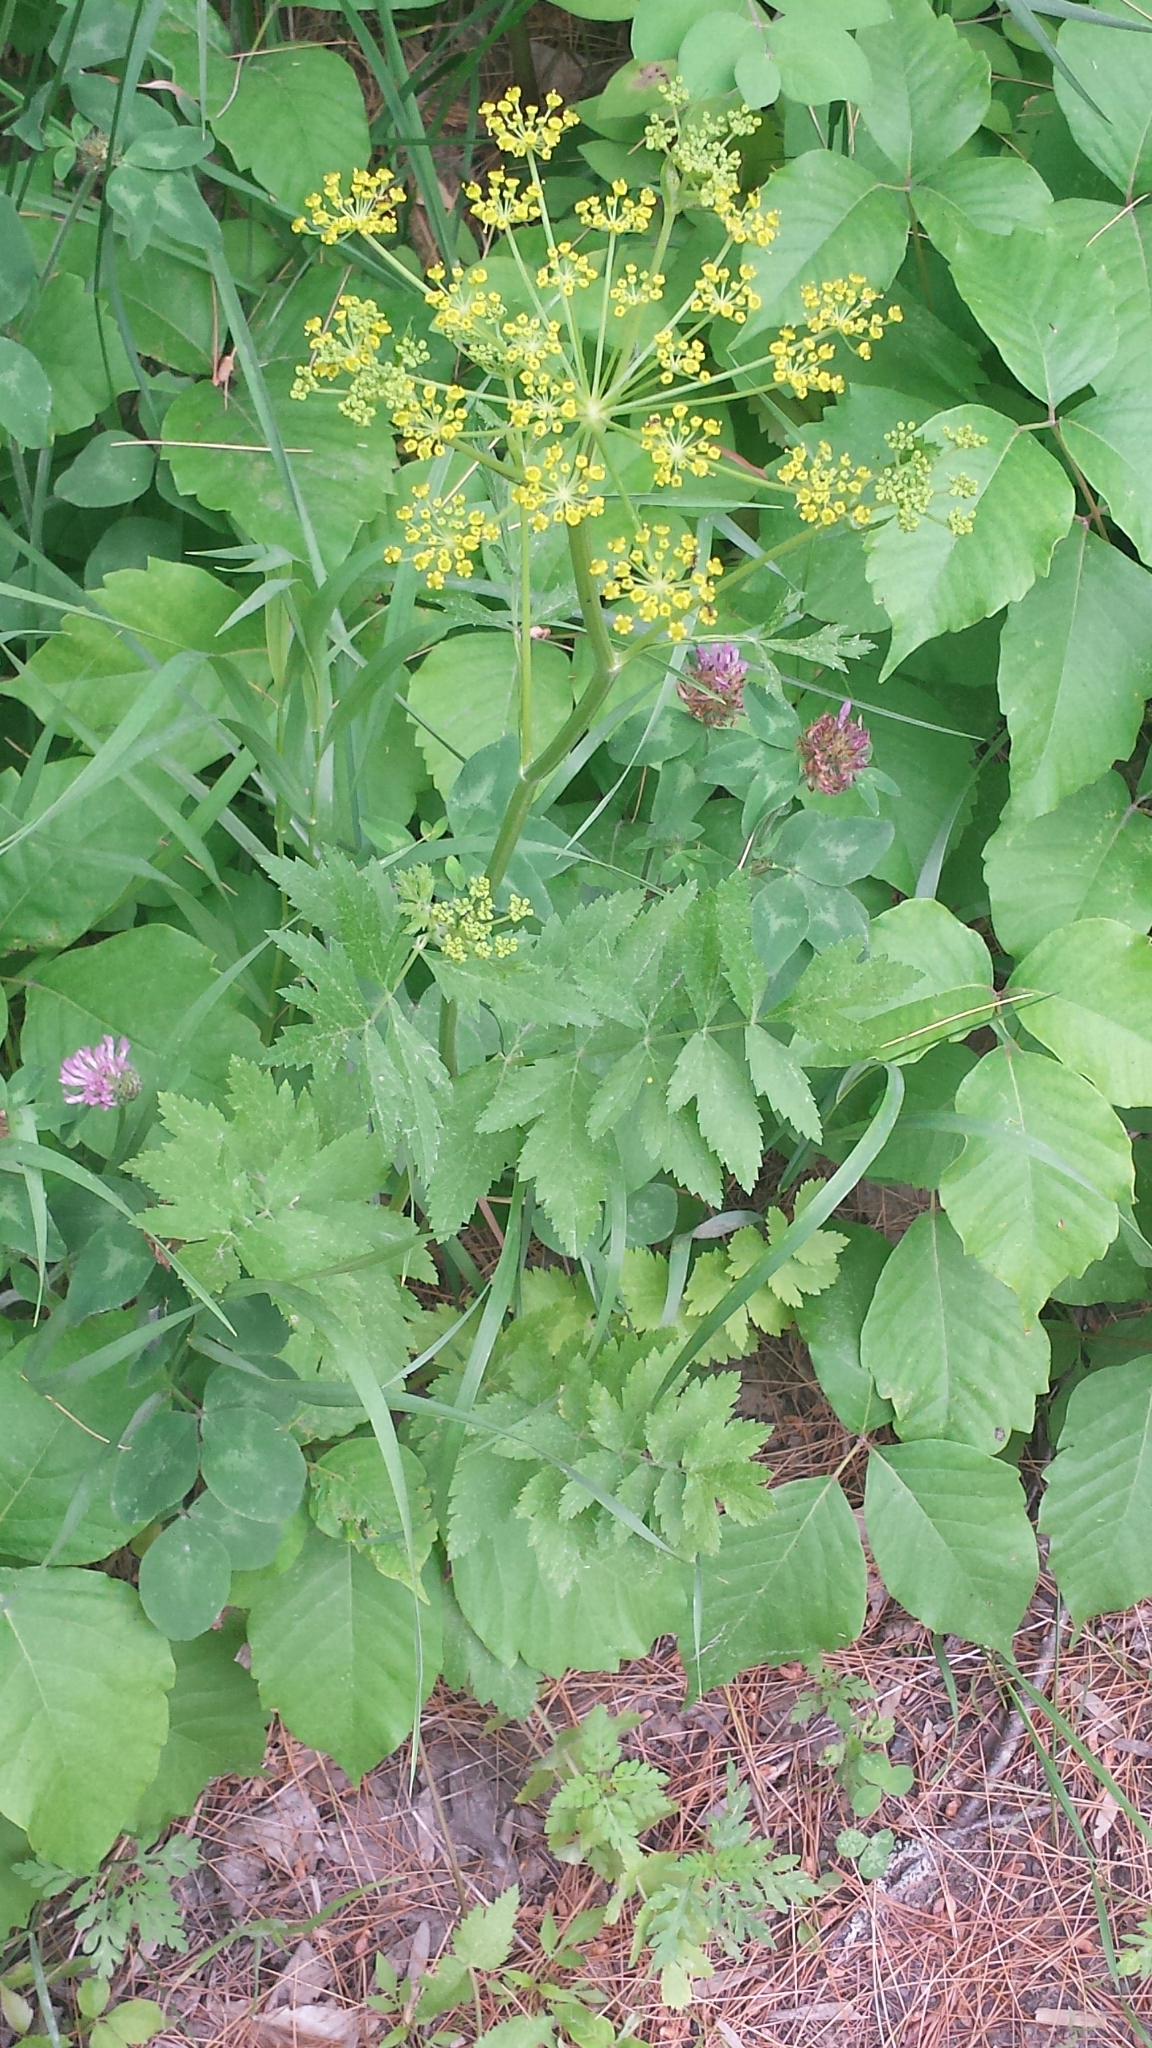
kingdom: Plantae
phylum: Tracheophyta
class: Magnoliopsida
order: Apiales
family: Apiaceae
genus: Pastinaca
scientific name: Pastinaca sativa
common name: Wild parsnip
